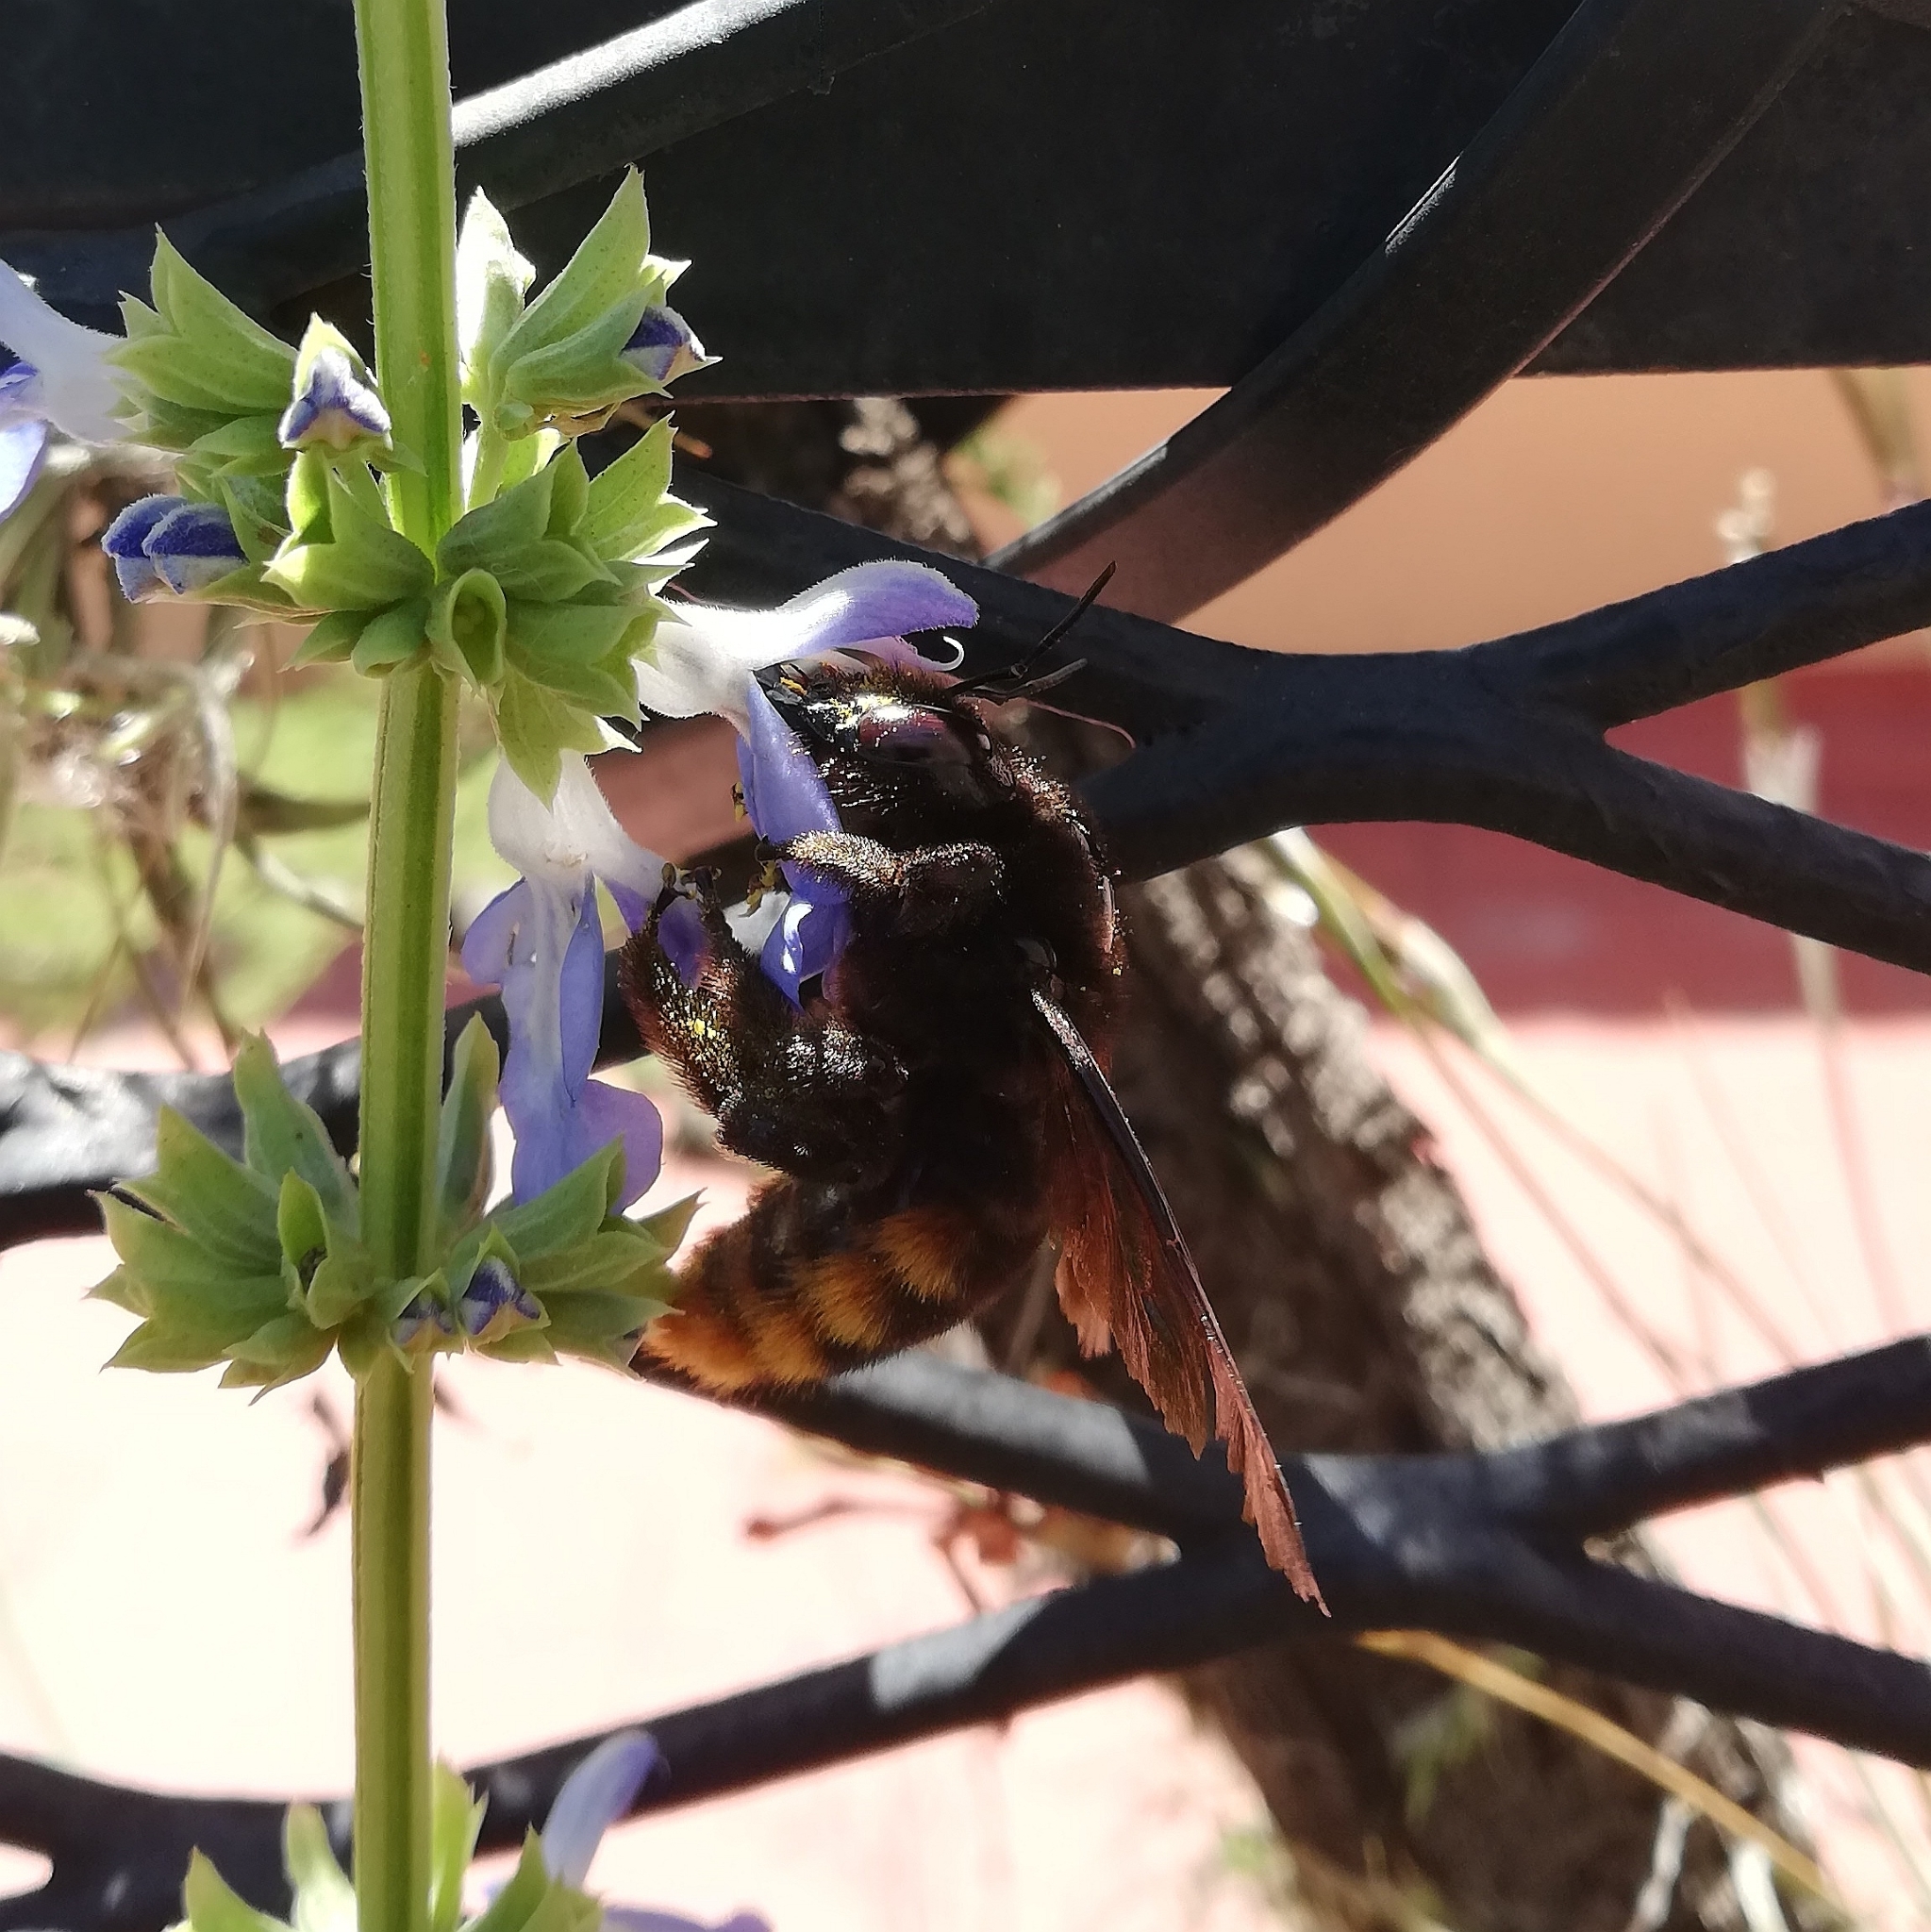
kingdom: Animalia
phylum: Arthropoda
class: Insecta
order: Hymenoptera
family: Apidae
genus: Xylocopa
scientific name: Xylocopa augusti
